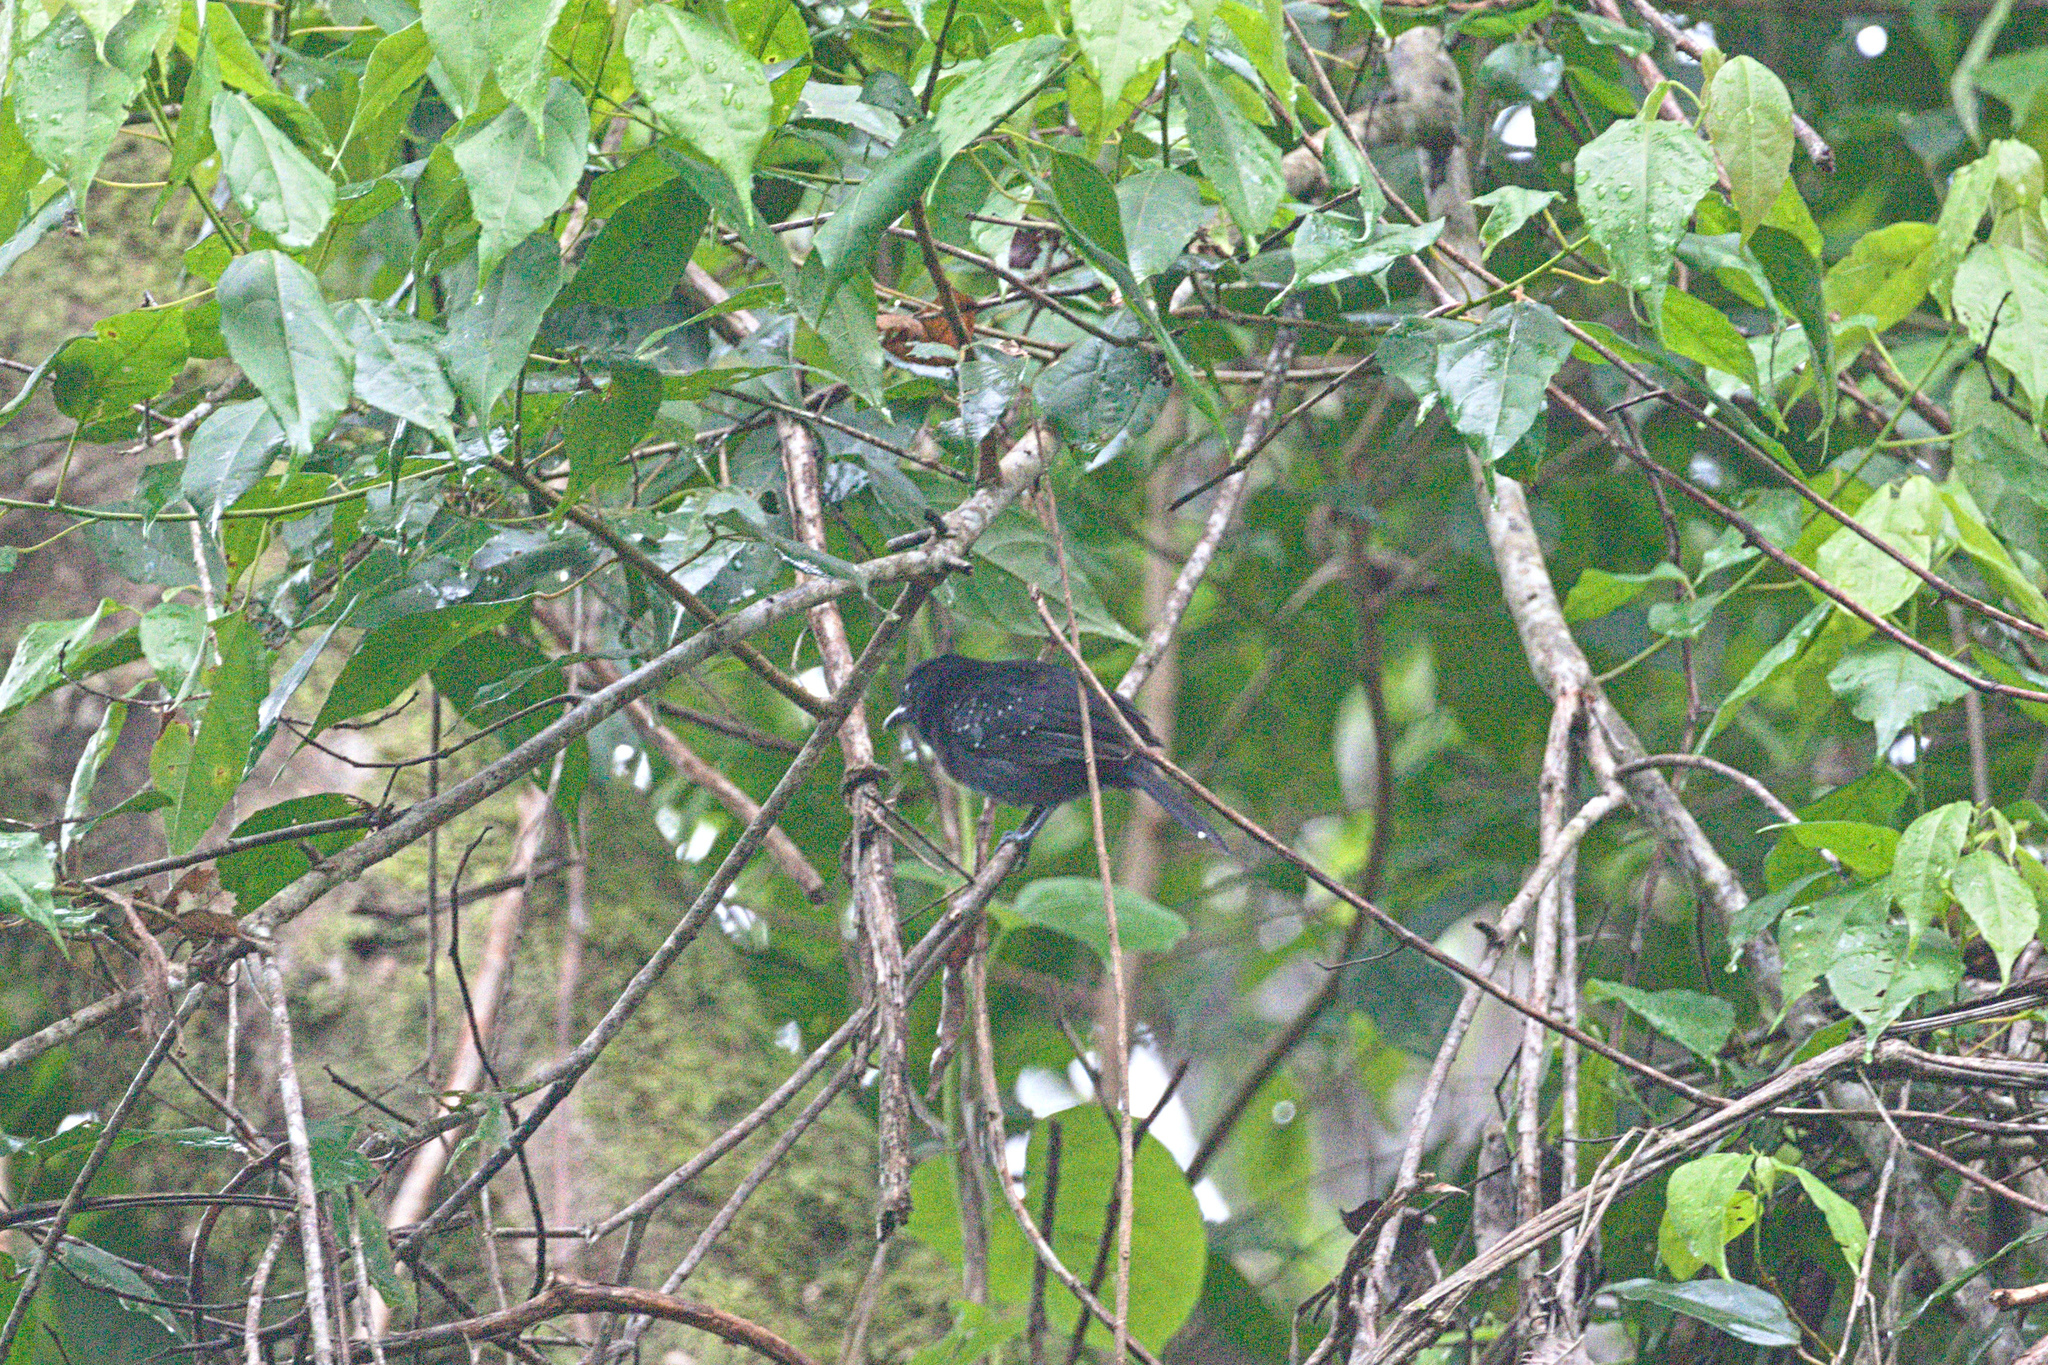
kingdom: Animalia
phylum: Chordata
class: Aves
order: Passeriformes
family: Thamnophilidae
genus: Thamnophilus
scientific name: Thamnophilus bridgesi
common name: Black-hooded antshrike
